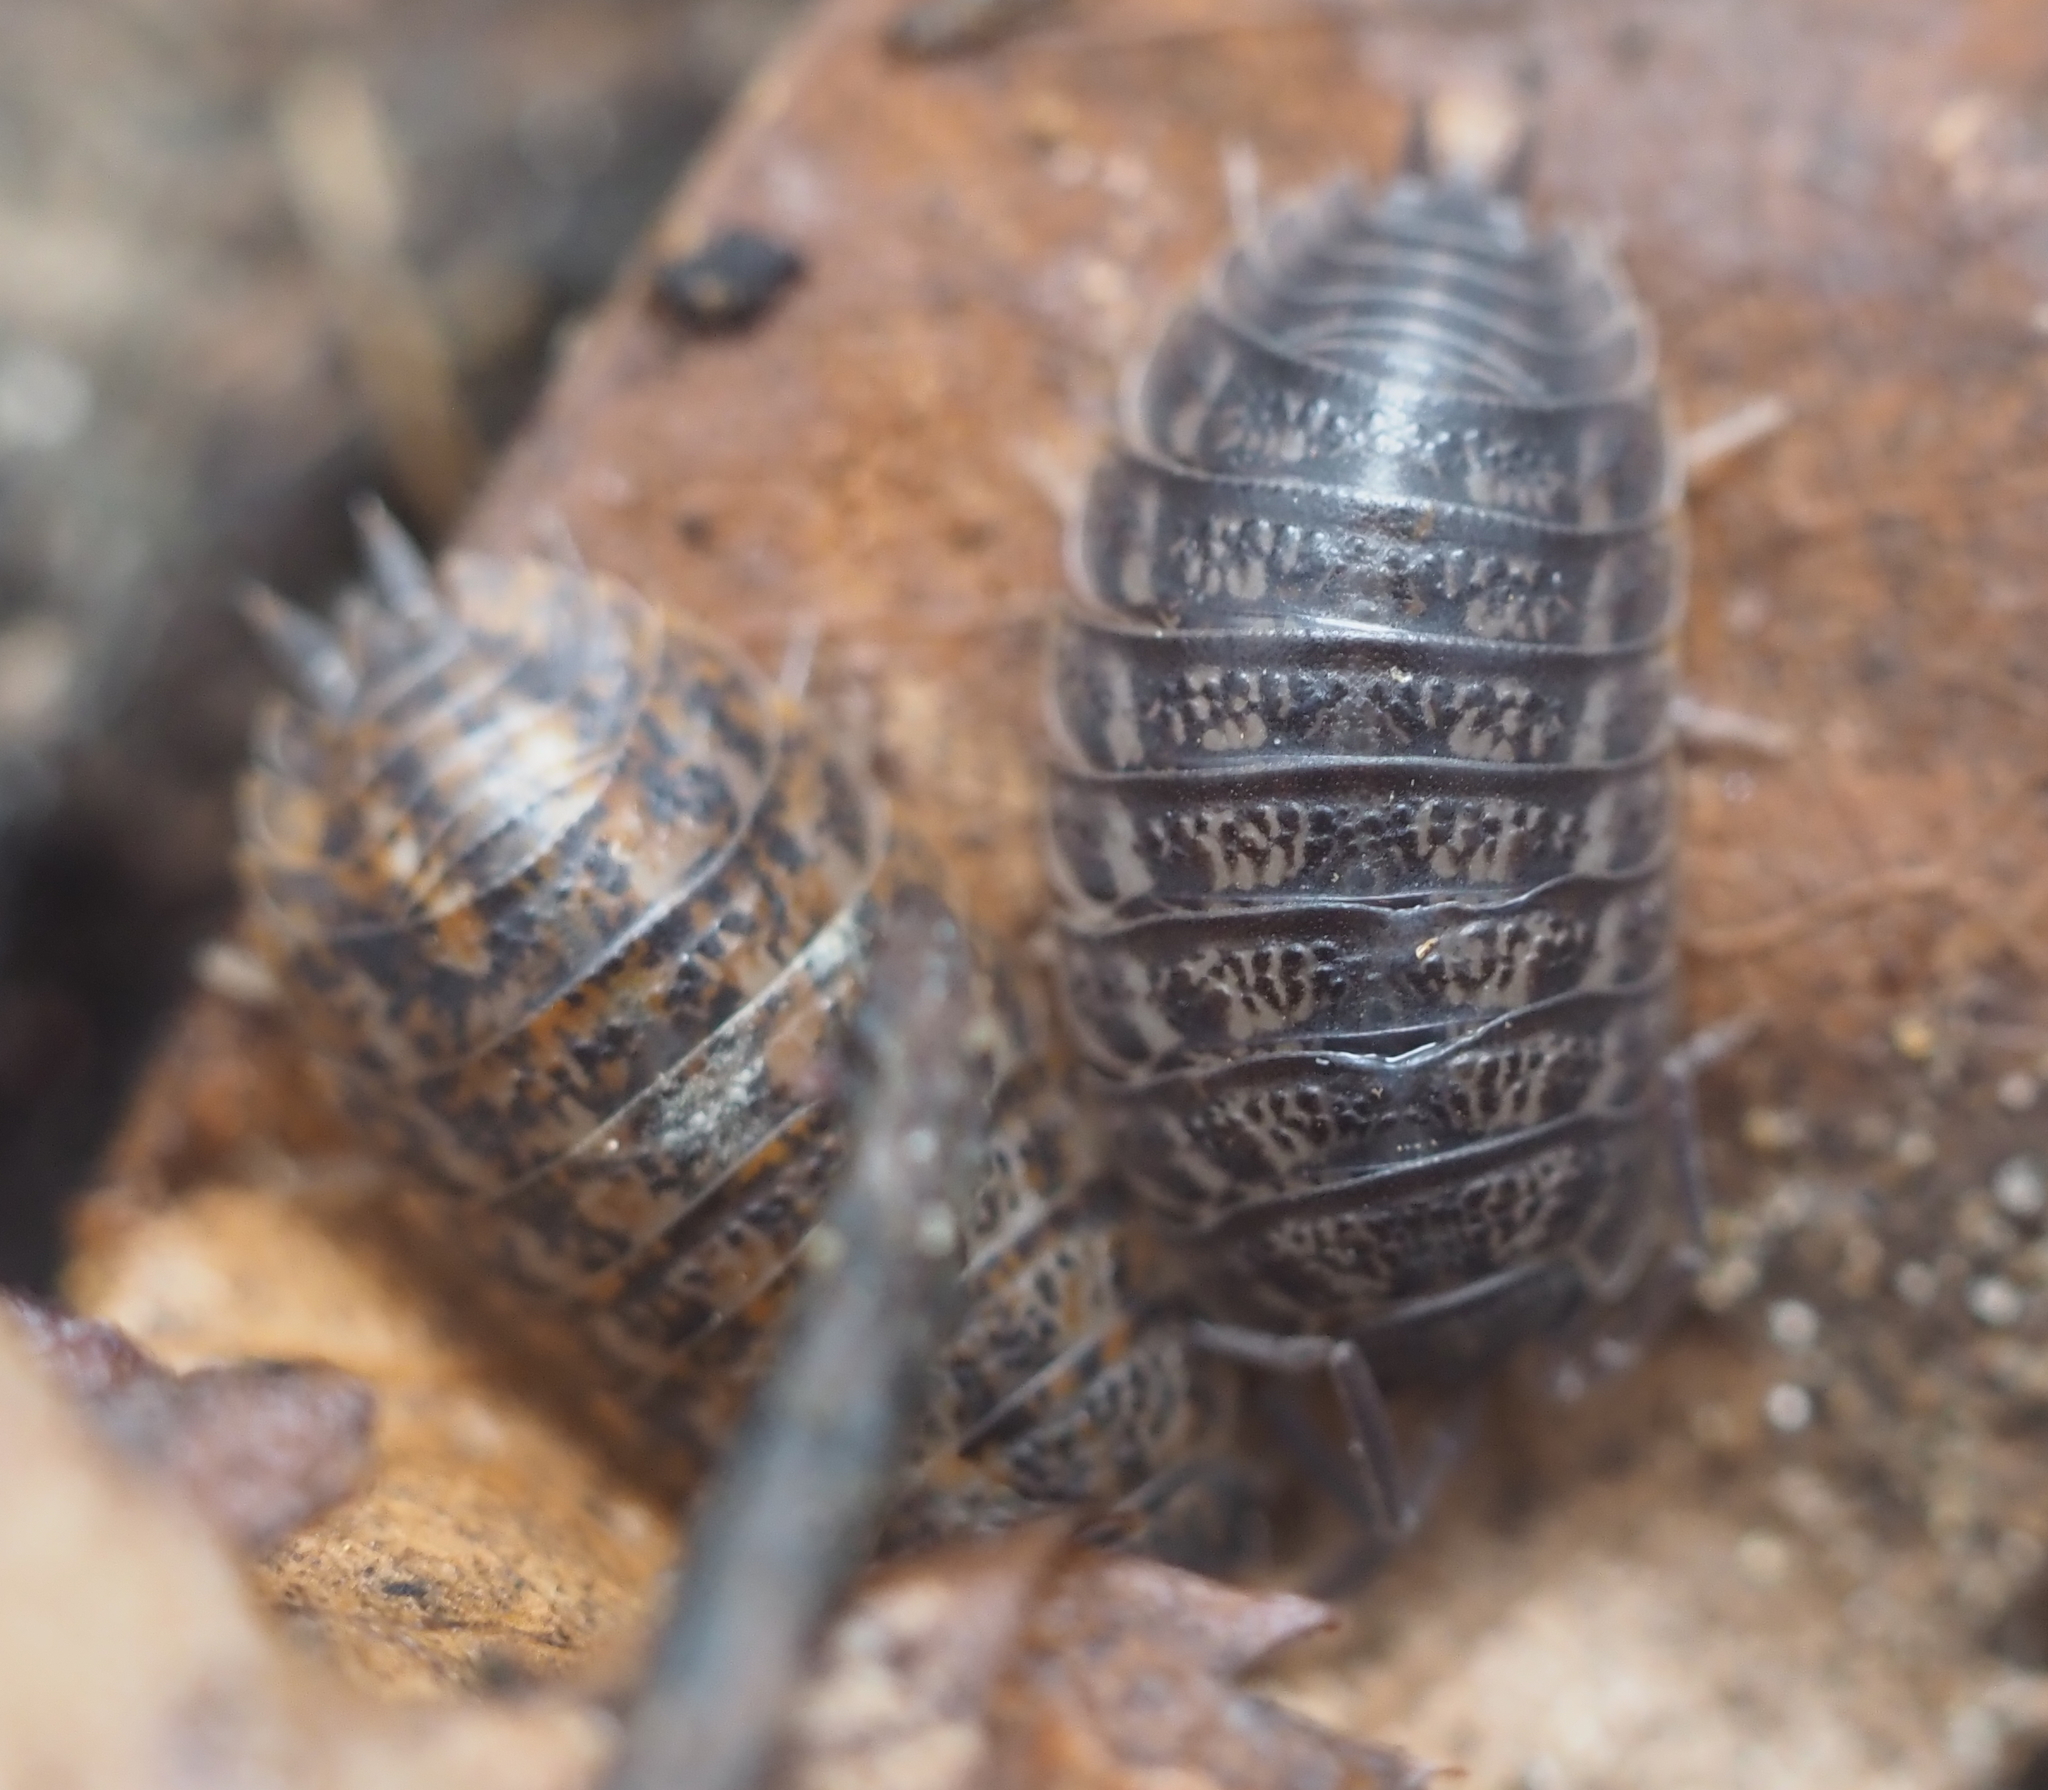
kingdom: Animalia
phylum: Arthropoda
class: Malacostraca
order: Isopoda
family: Trachelipodidae
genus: Trachelipus
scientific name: Trachelipus rathkii
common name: Isopod
